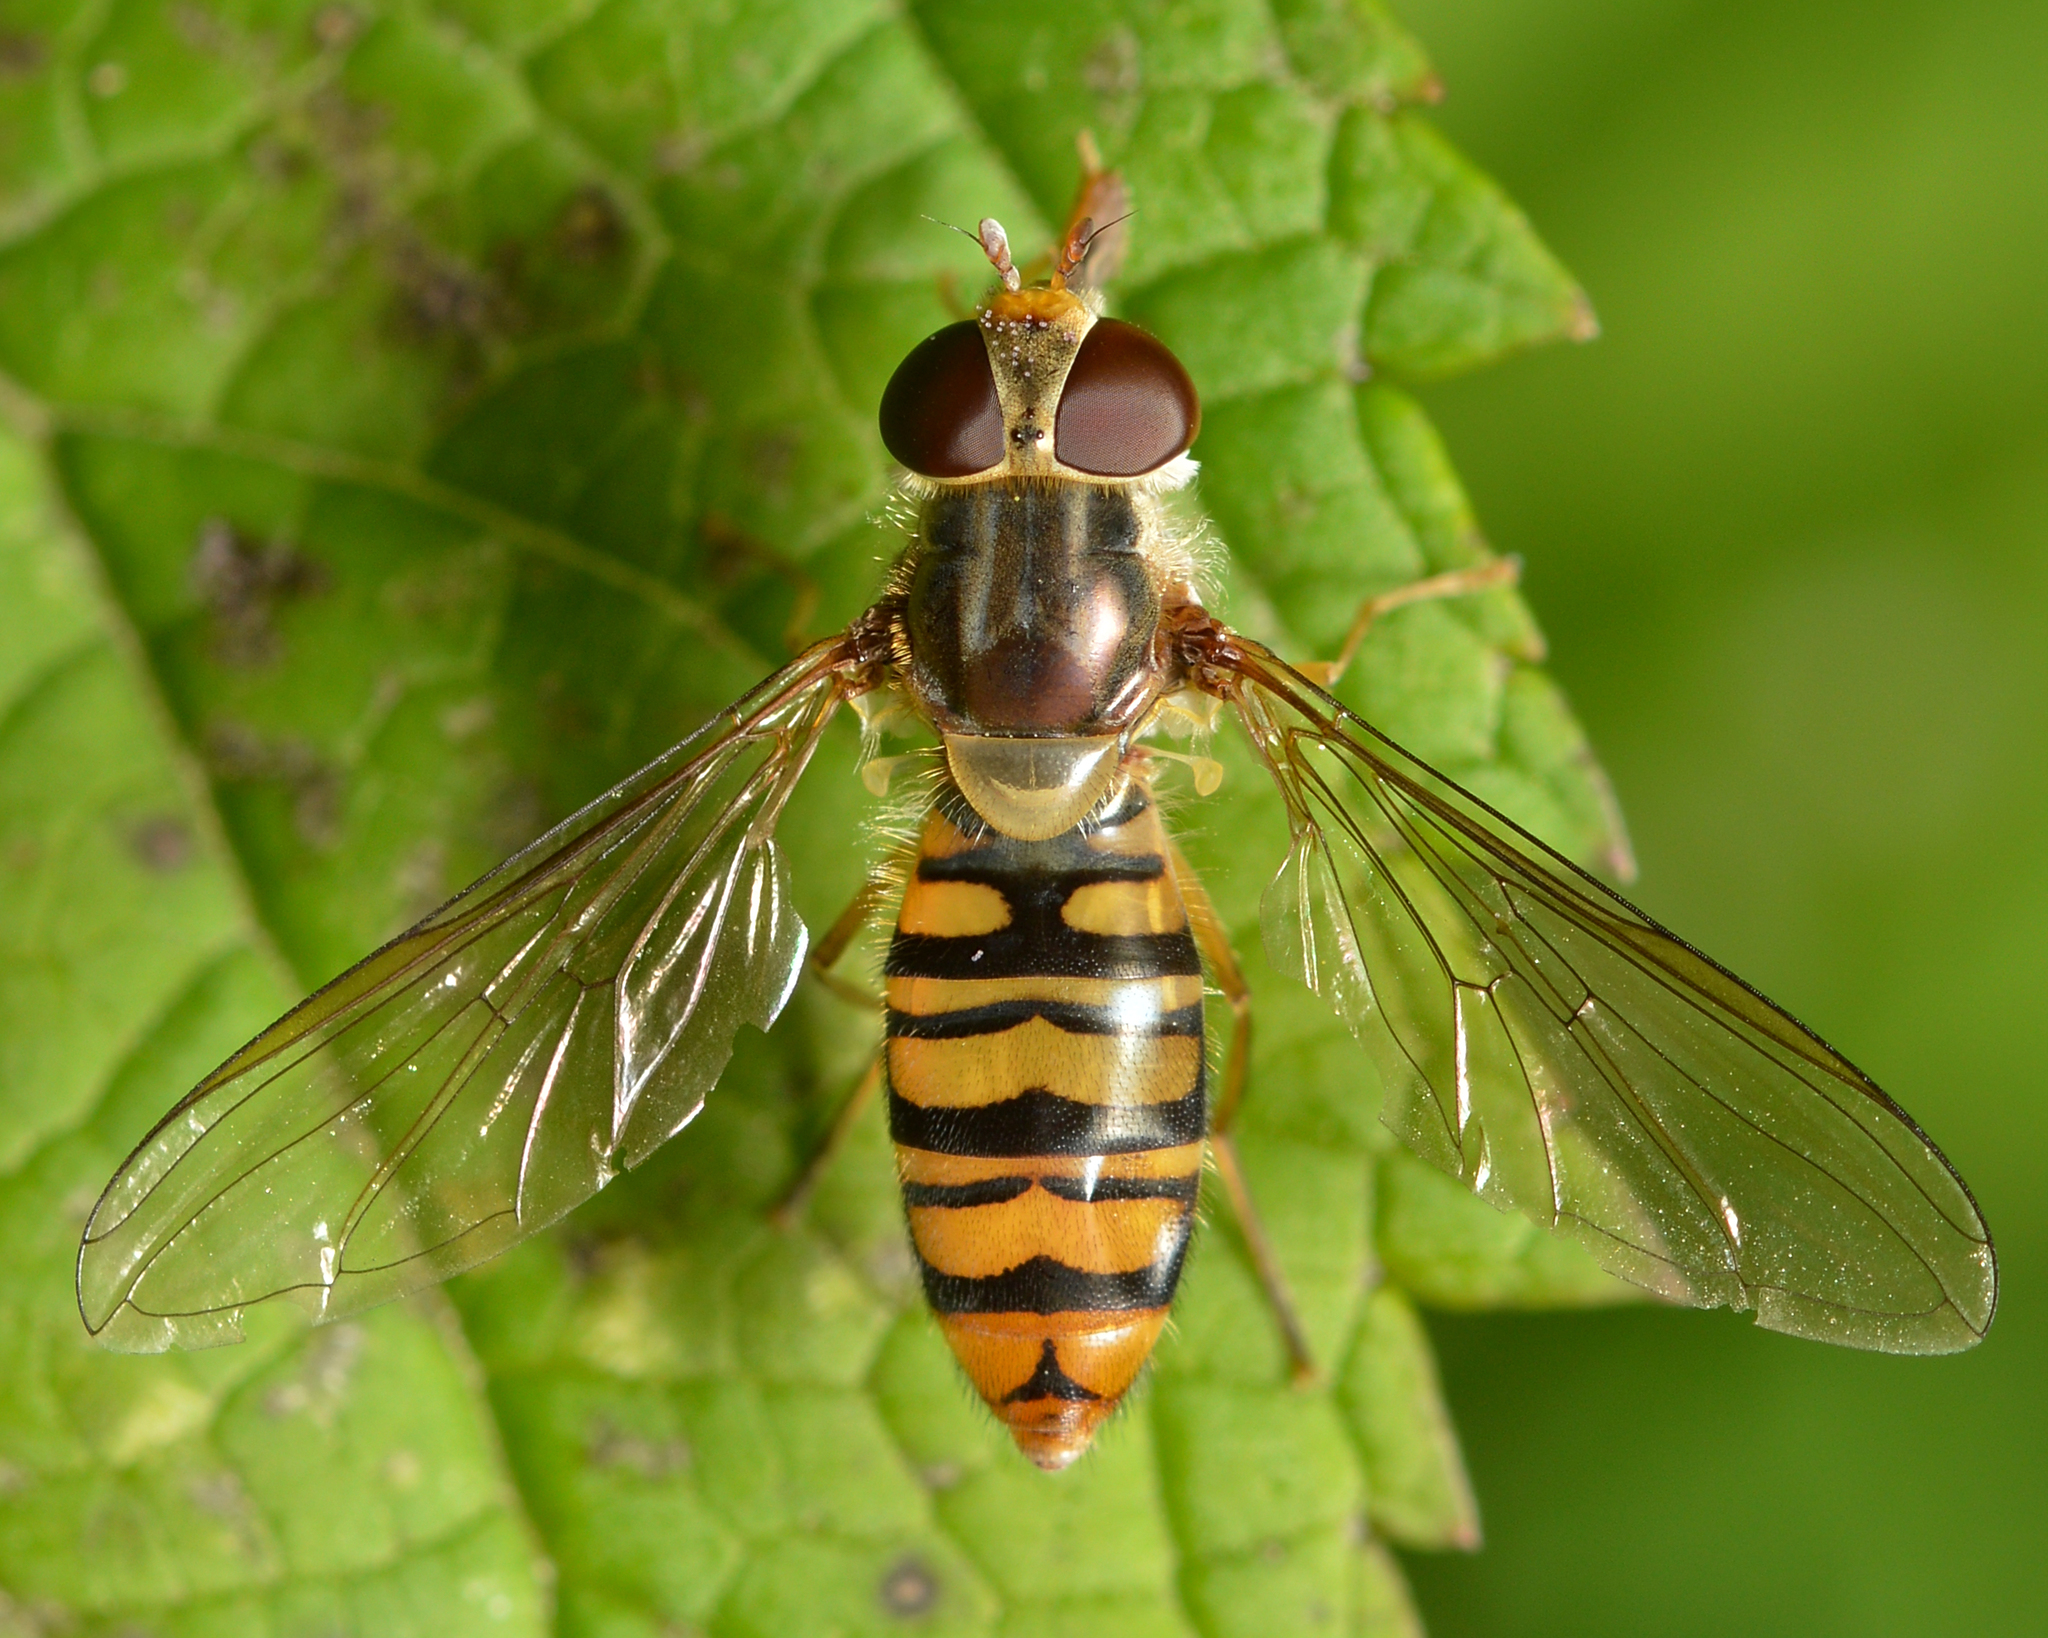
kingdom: Animalia
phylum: Arthropoda
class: Insecta
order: Diptera
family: Syrphidae
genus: Episyrphus
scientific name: Episyrphus balteatus
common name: Marmalade hoverfly
